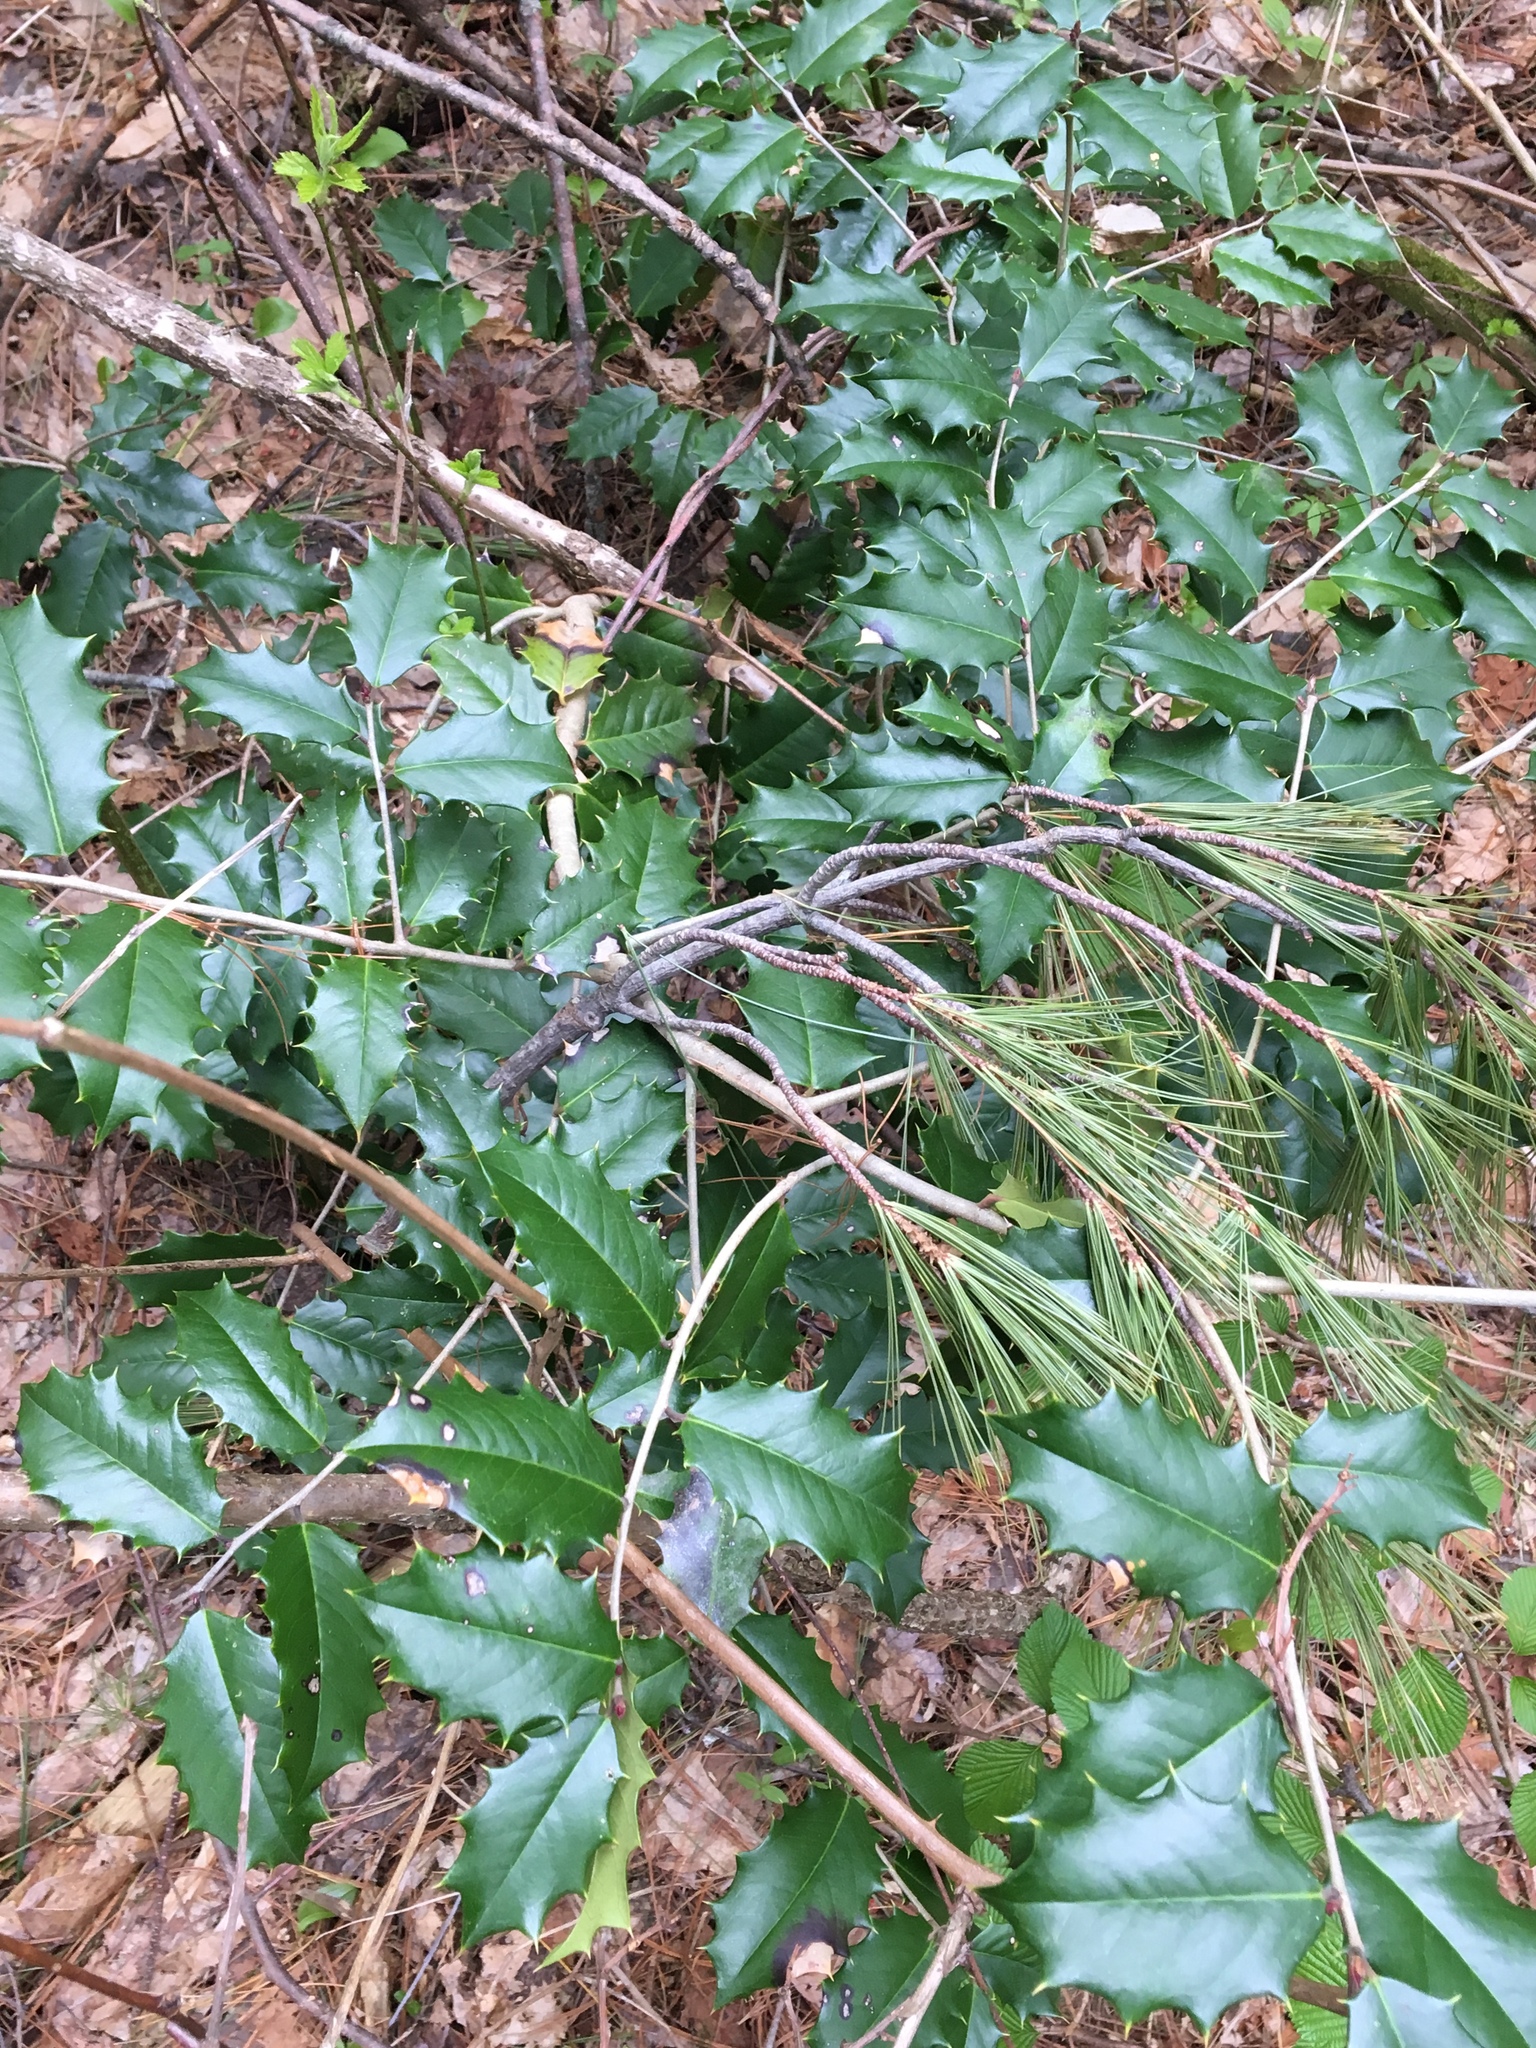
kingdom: Plantae
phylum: Tracheophyta
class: Magnoliopsida
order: Aquifoliales
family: Aquifoliaceae
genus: Ilex
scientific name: Ilex opaca
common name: American holly
